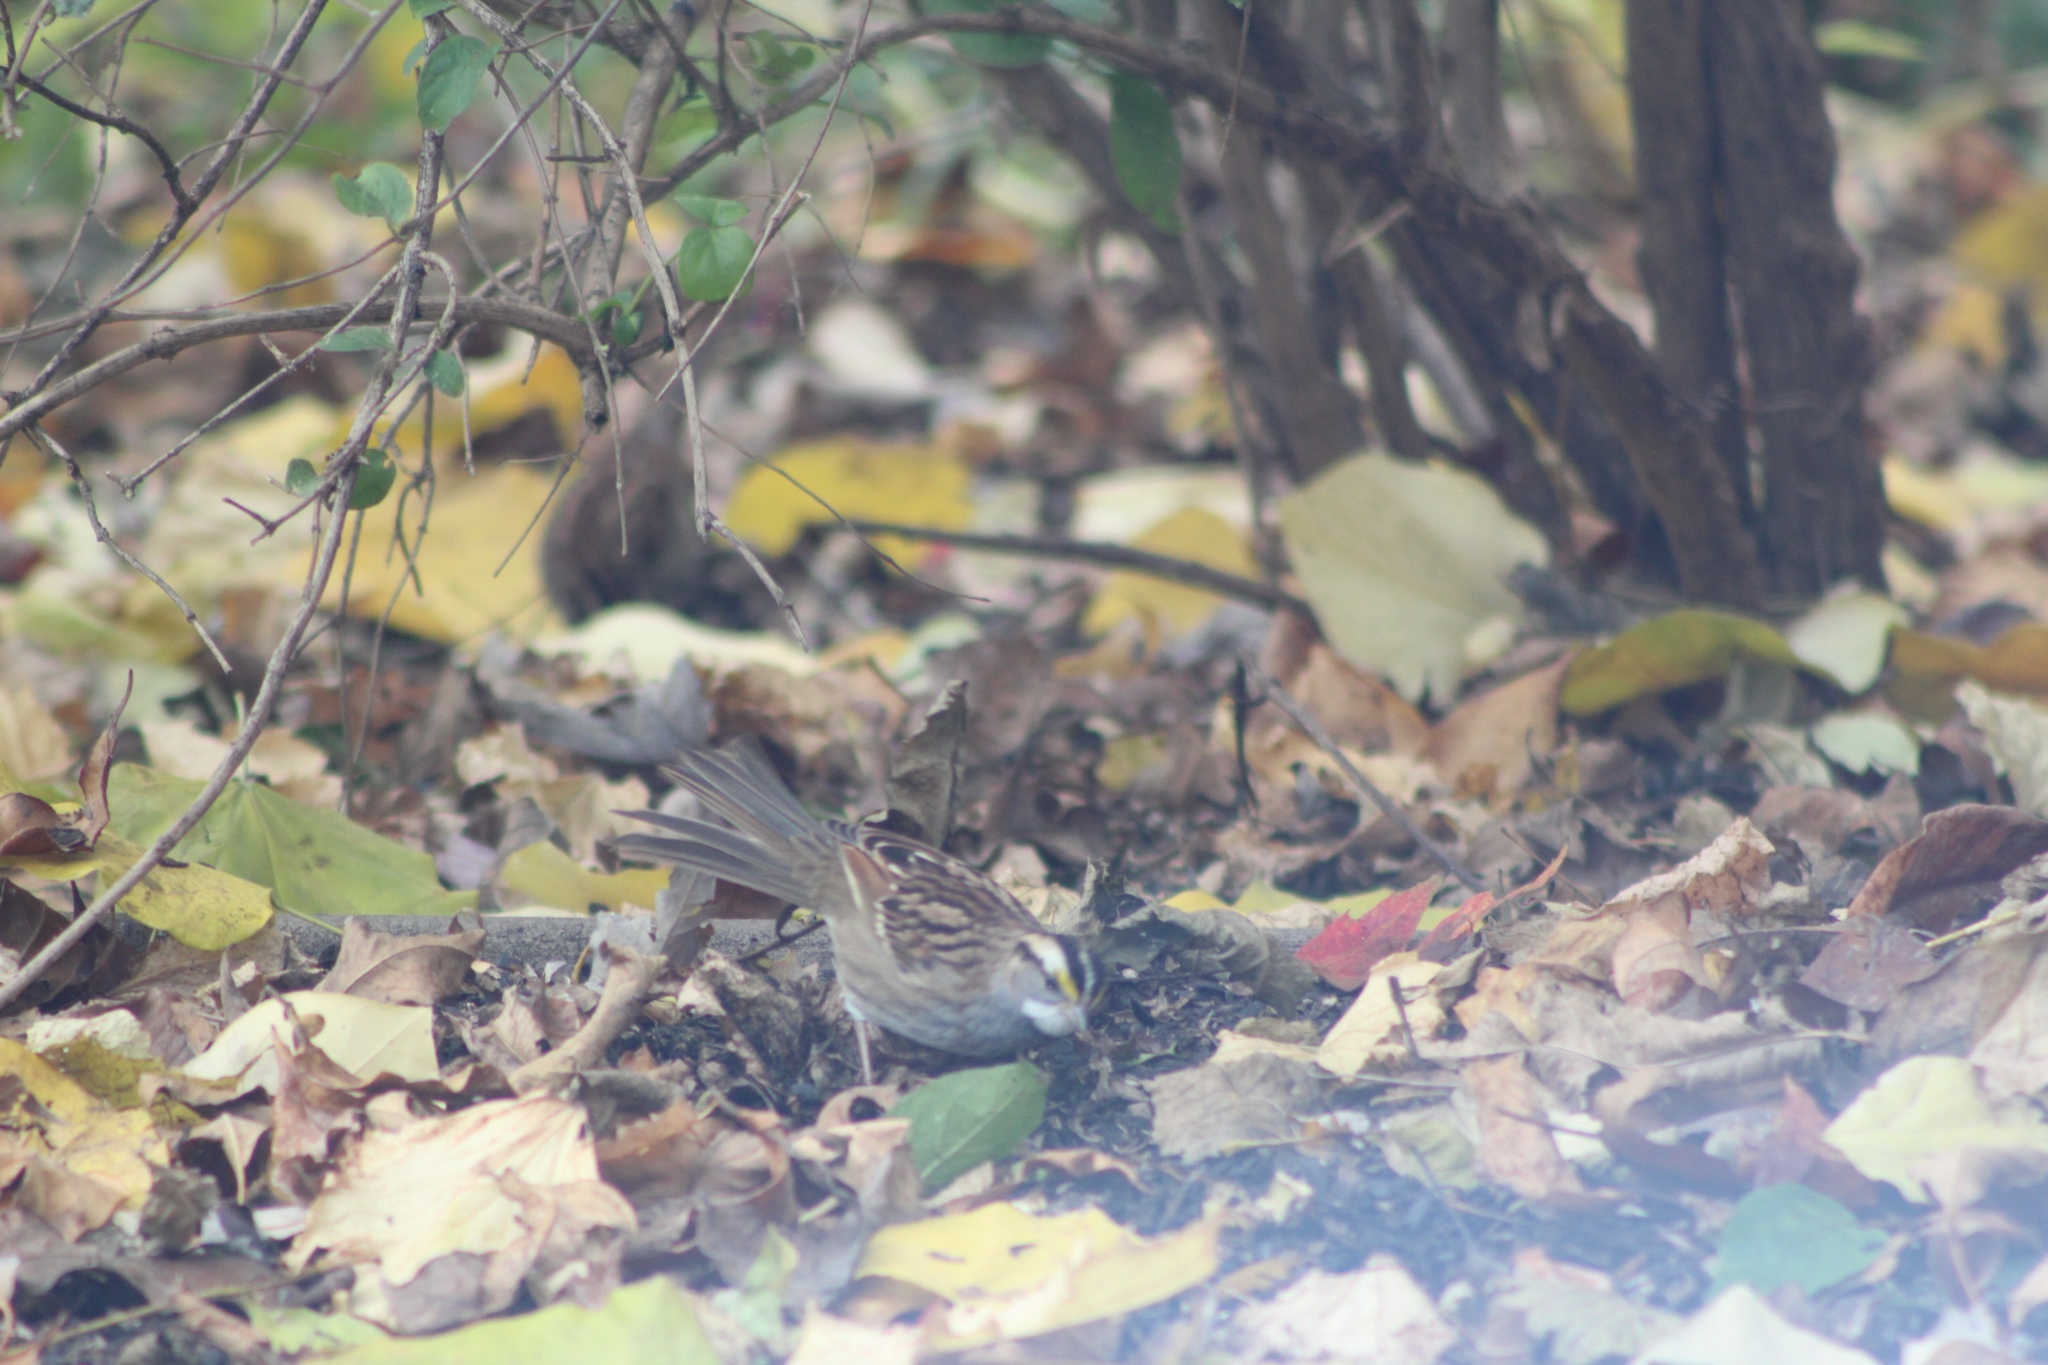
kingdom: Animalia
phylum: Chordata
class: Aves
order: Passeriformes
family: Passerellidae
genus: Zonotrichia
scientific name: Zonotrichia albicollis
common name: White-throated sparrow
